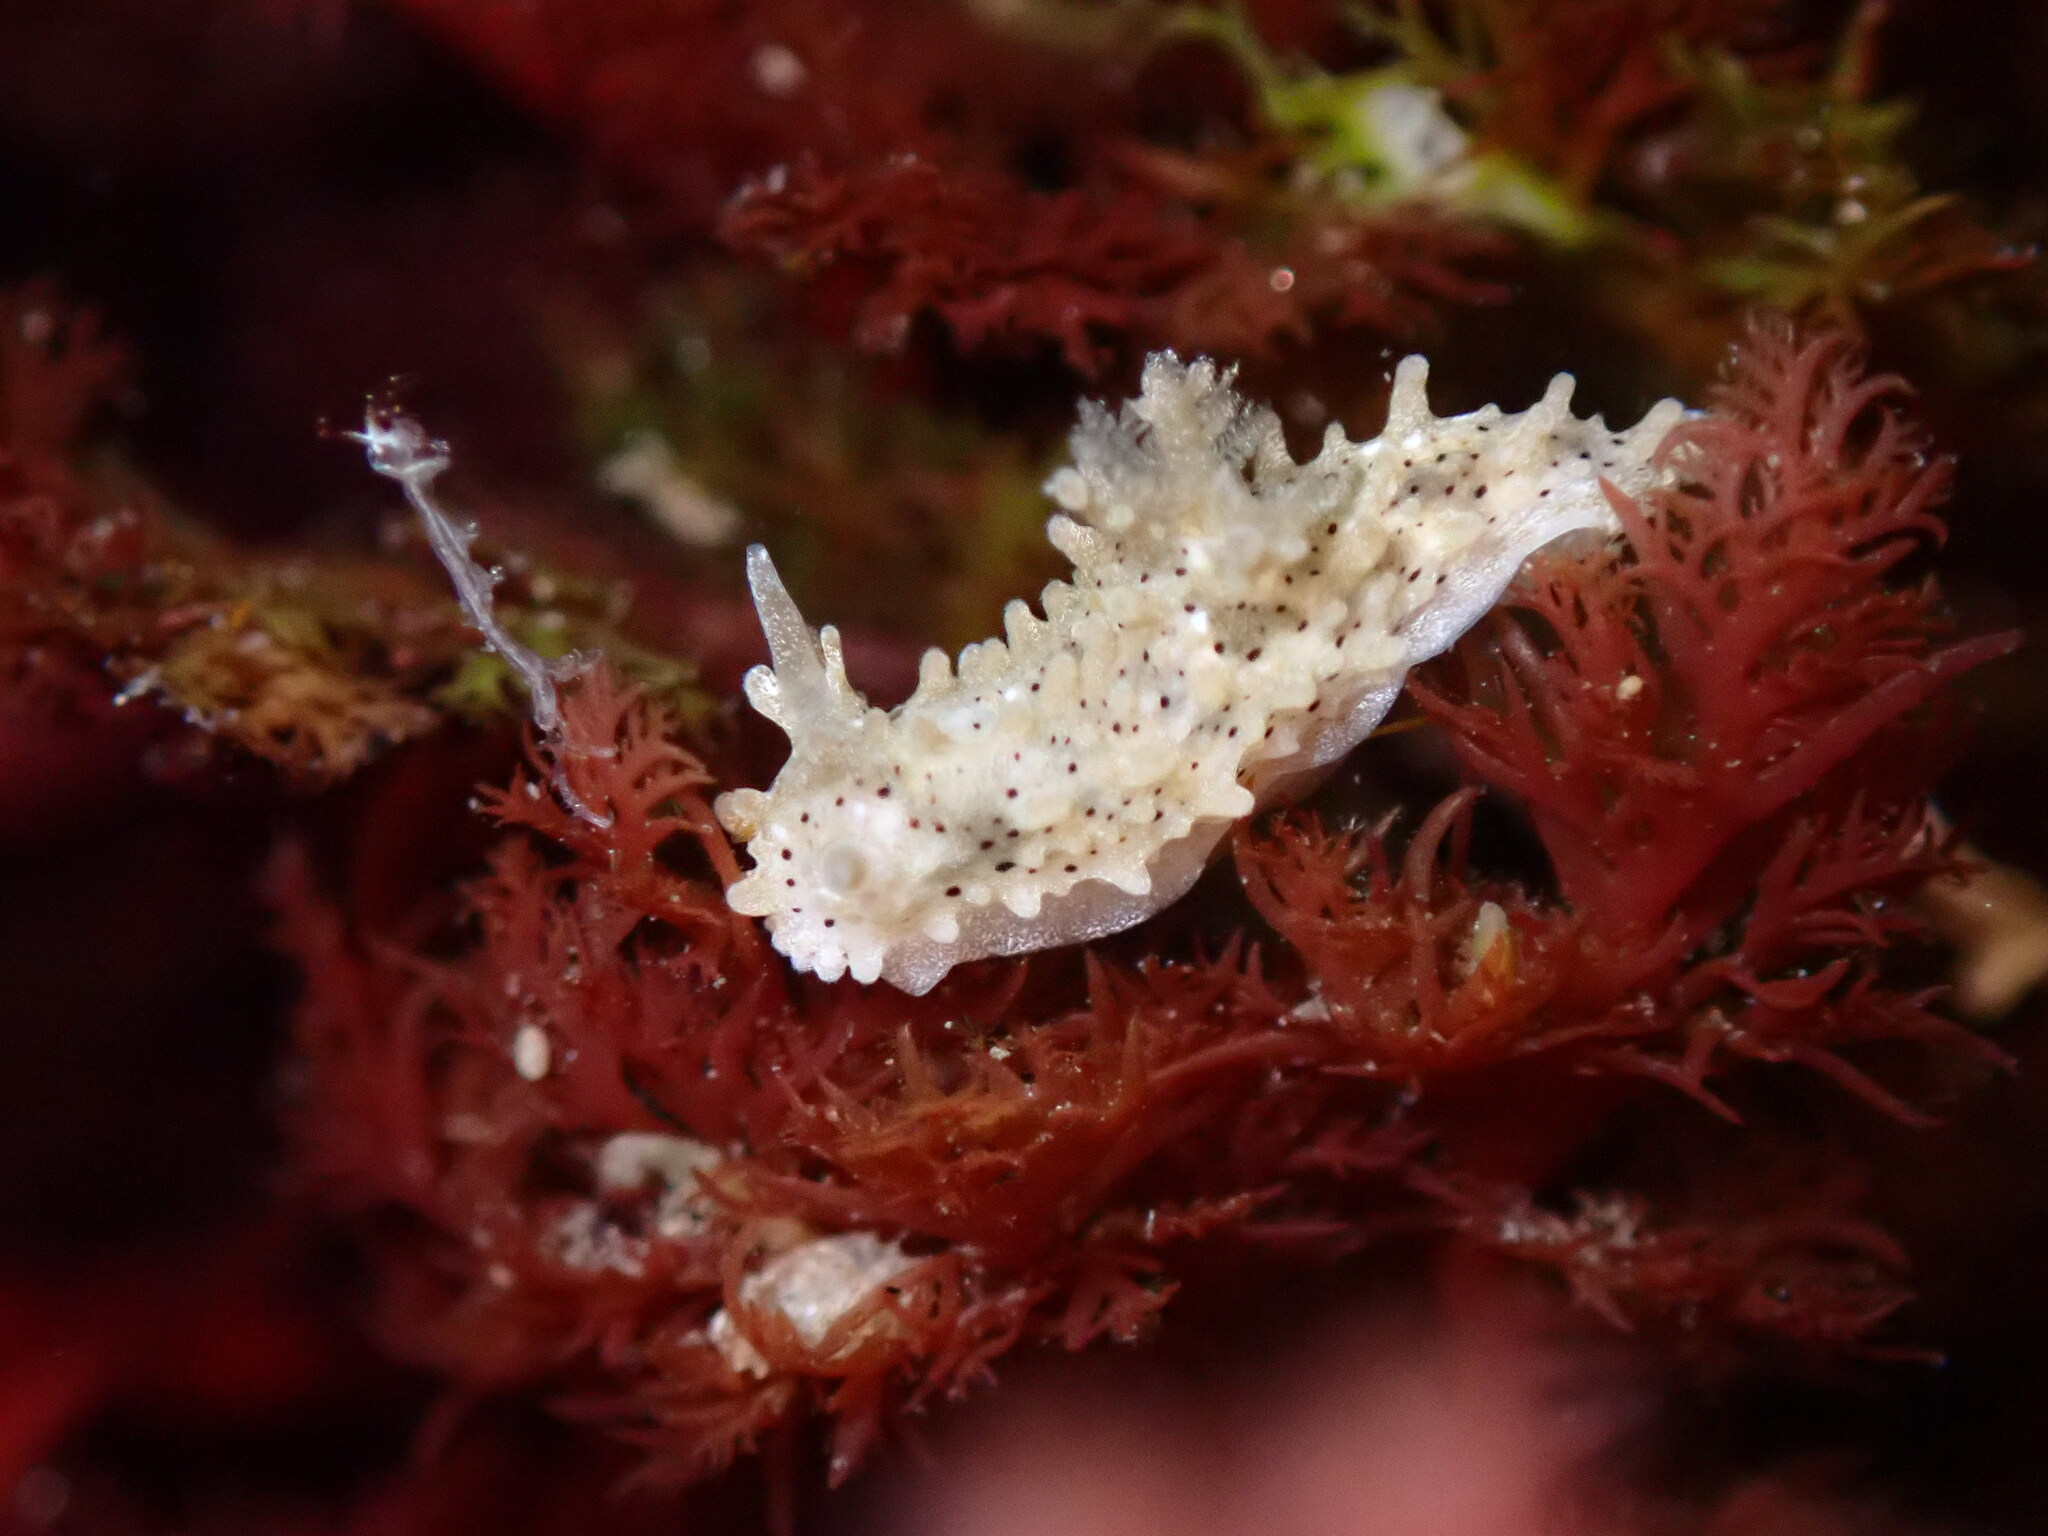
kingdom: Animalia
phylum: Mollusca
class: Gastropoda
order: Nudibranchia
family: Aegiridae
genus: Aegires
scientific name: Aegires albopunctatus
